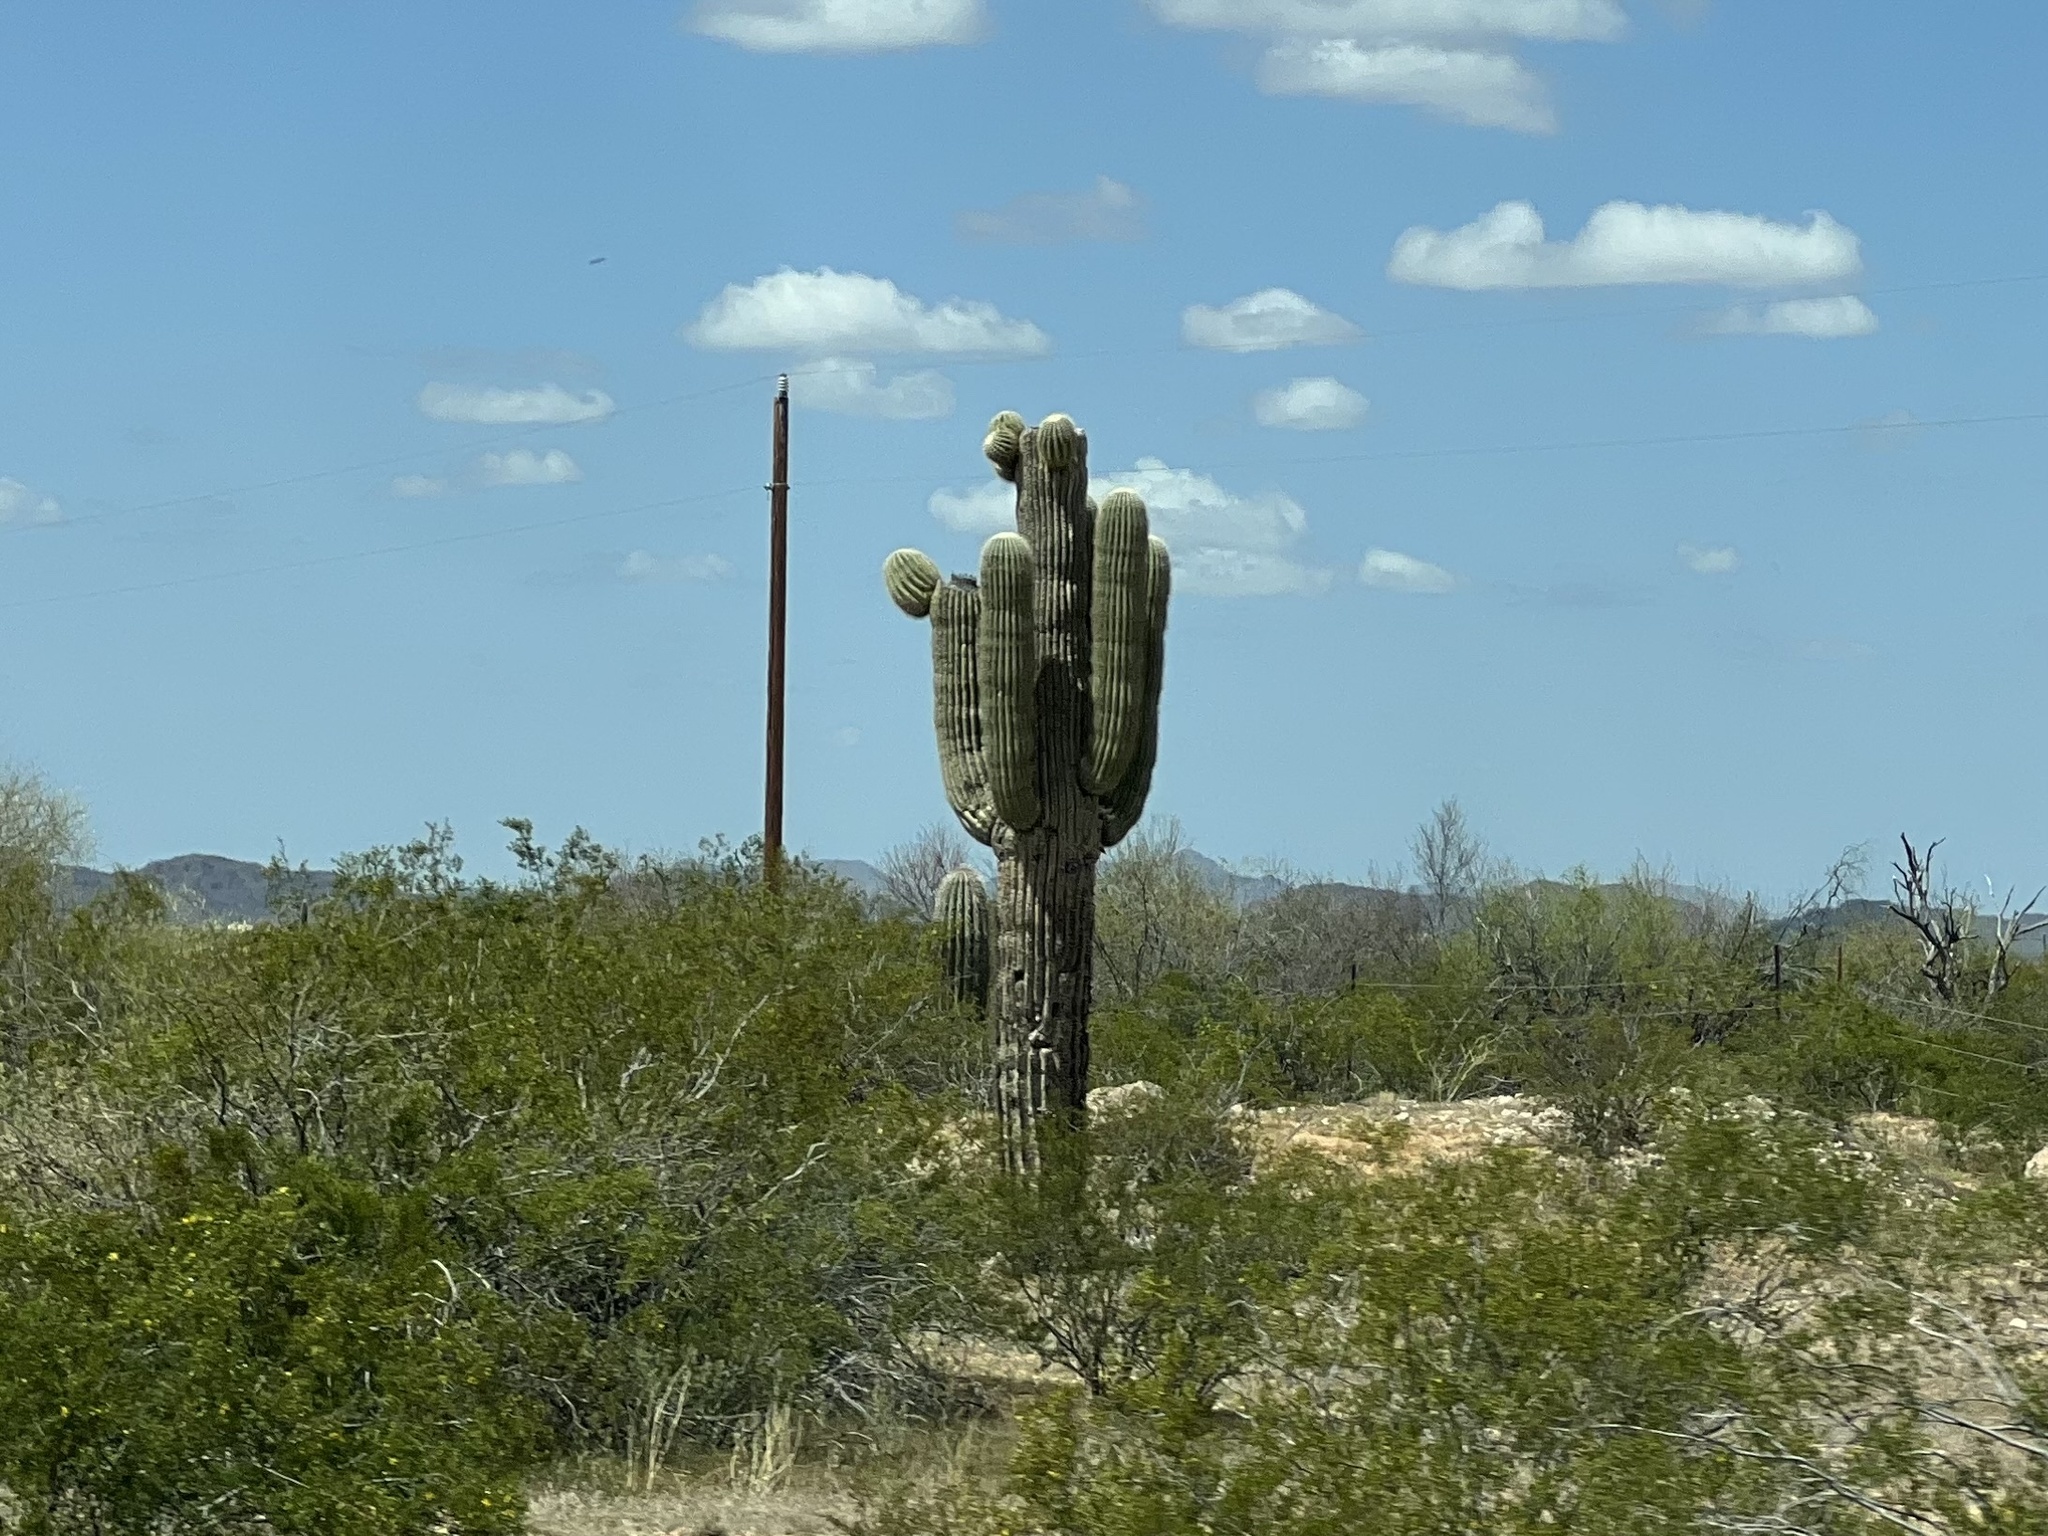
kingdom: Plantae
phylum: Tracheophyta
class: Magnoliopsida
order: Caryophyllales
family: Cactaceae
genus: Carnegiea
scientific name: Carnegiea gigantea
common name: Saguaro
